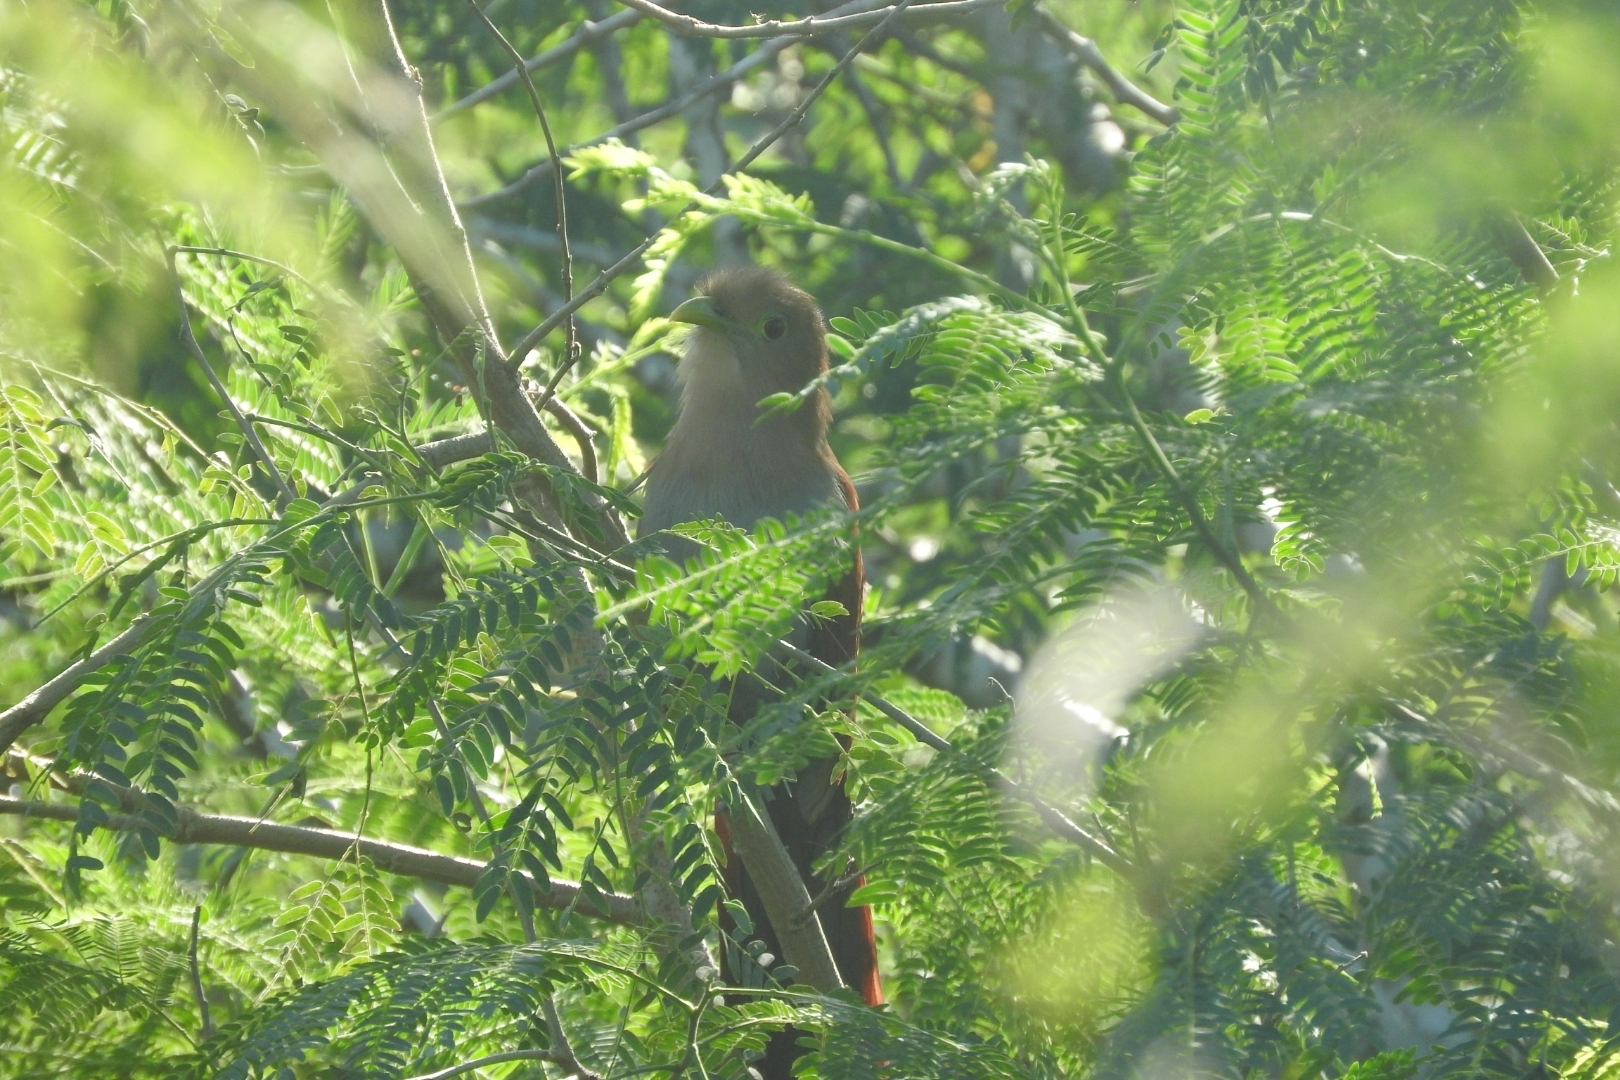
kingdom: Animalia
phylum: Chordata
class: Aves
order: Cuculiformes
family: Cuculidae
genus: Piaya
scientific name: Piaya cayana
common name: Squirrel cuckoo
